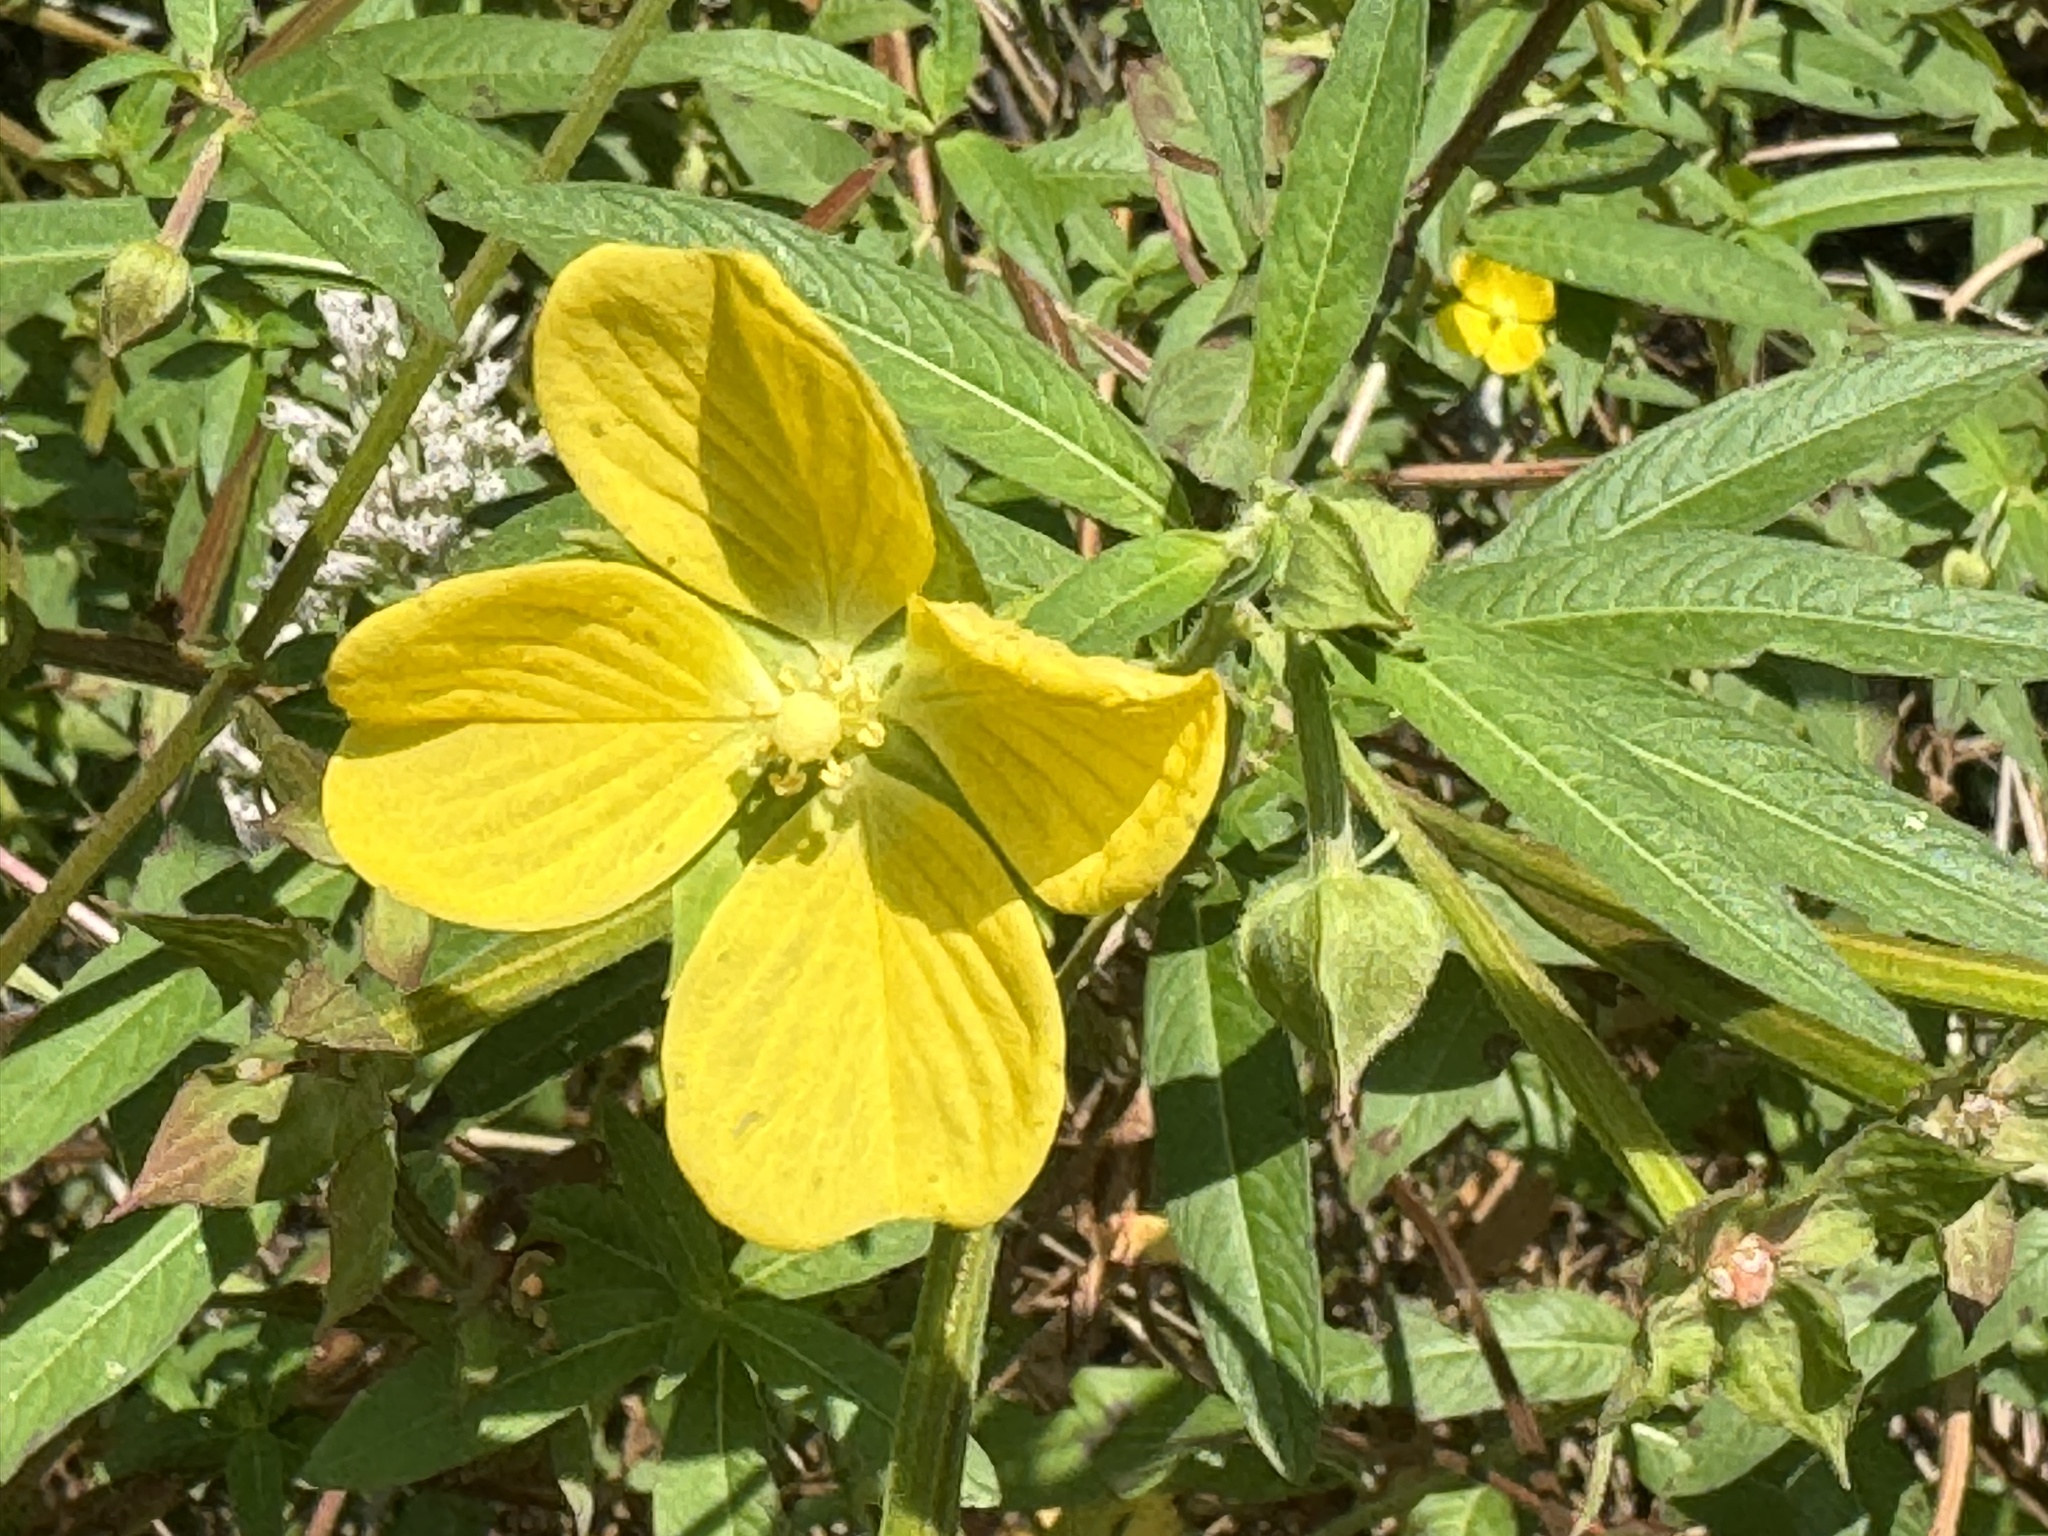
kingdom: Plantae
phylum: Tracheophyta
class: Magnoliopsida
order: Myrtales
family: Onagraceae
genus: Ludwigia
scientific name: Ludwigia octovalvis
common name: Water-primrose
